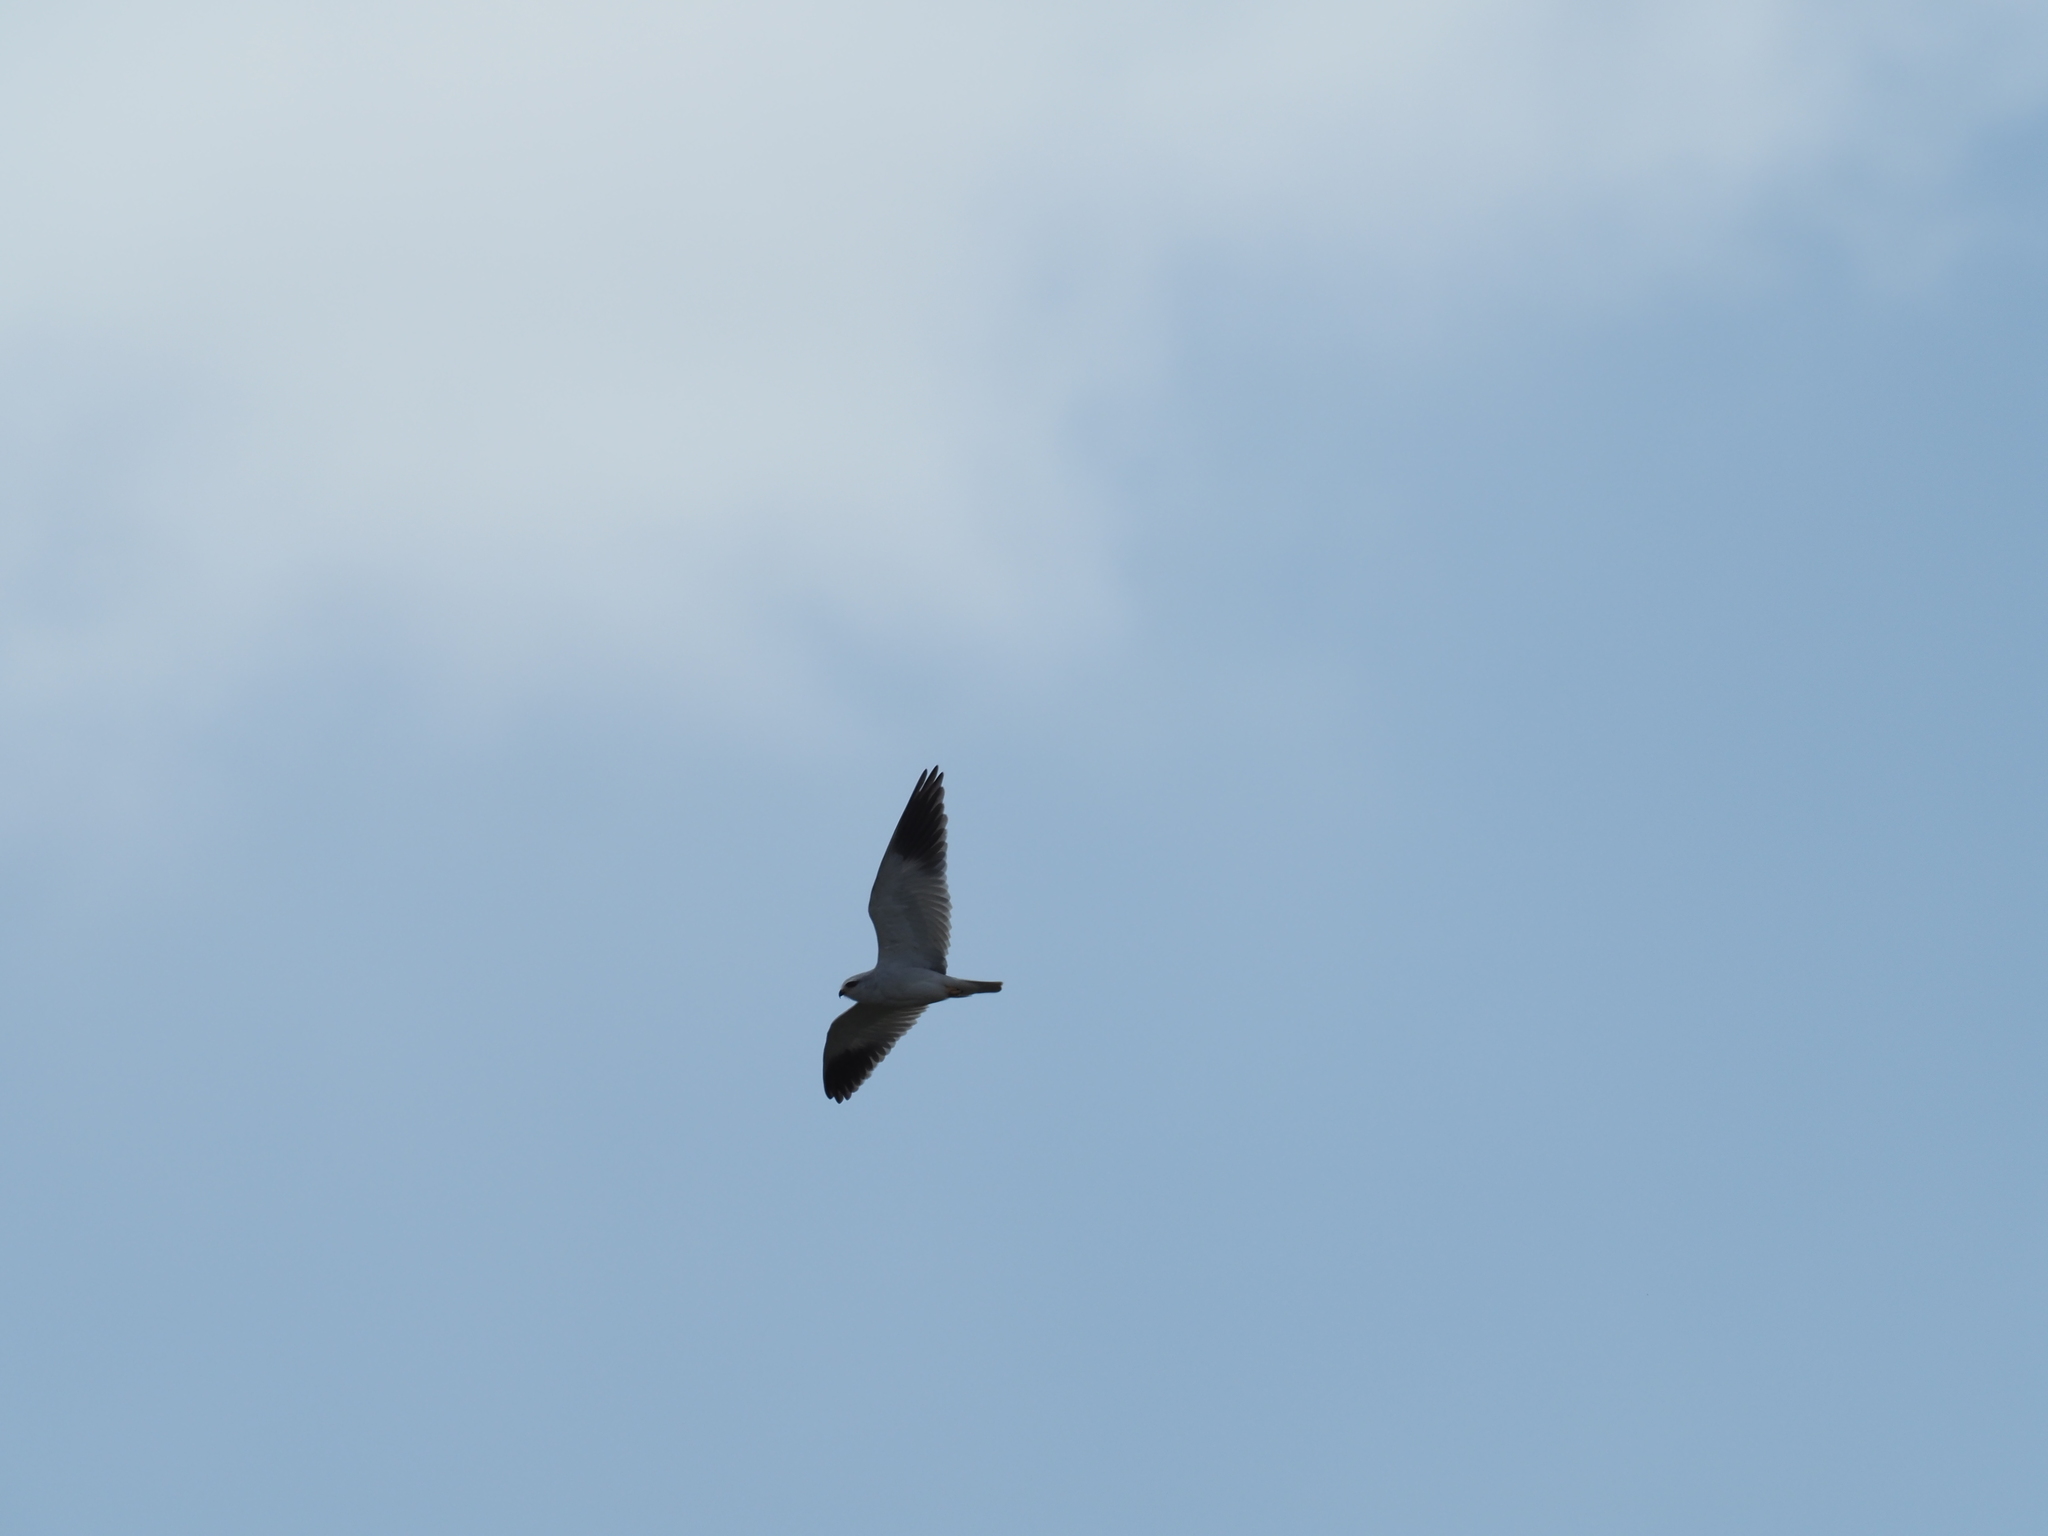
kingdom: Animalia
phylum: Chordata
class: Aves
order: Accipitriformes
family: Accipitridae
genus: Elanus
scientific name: Elanus caeruleus
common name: Black-winged kite
